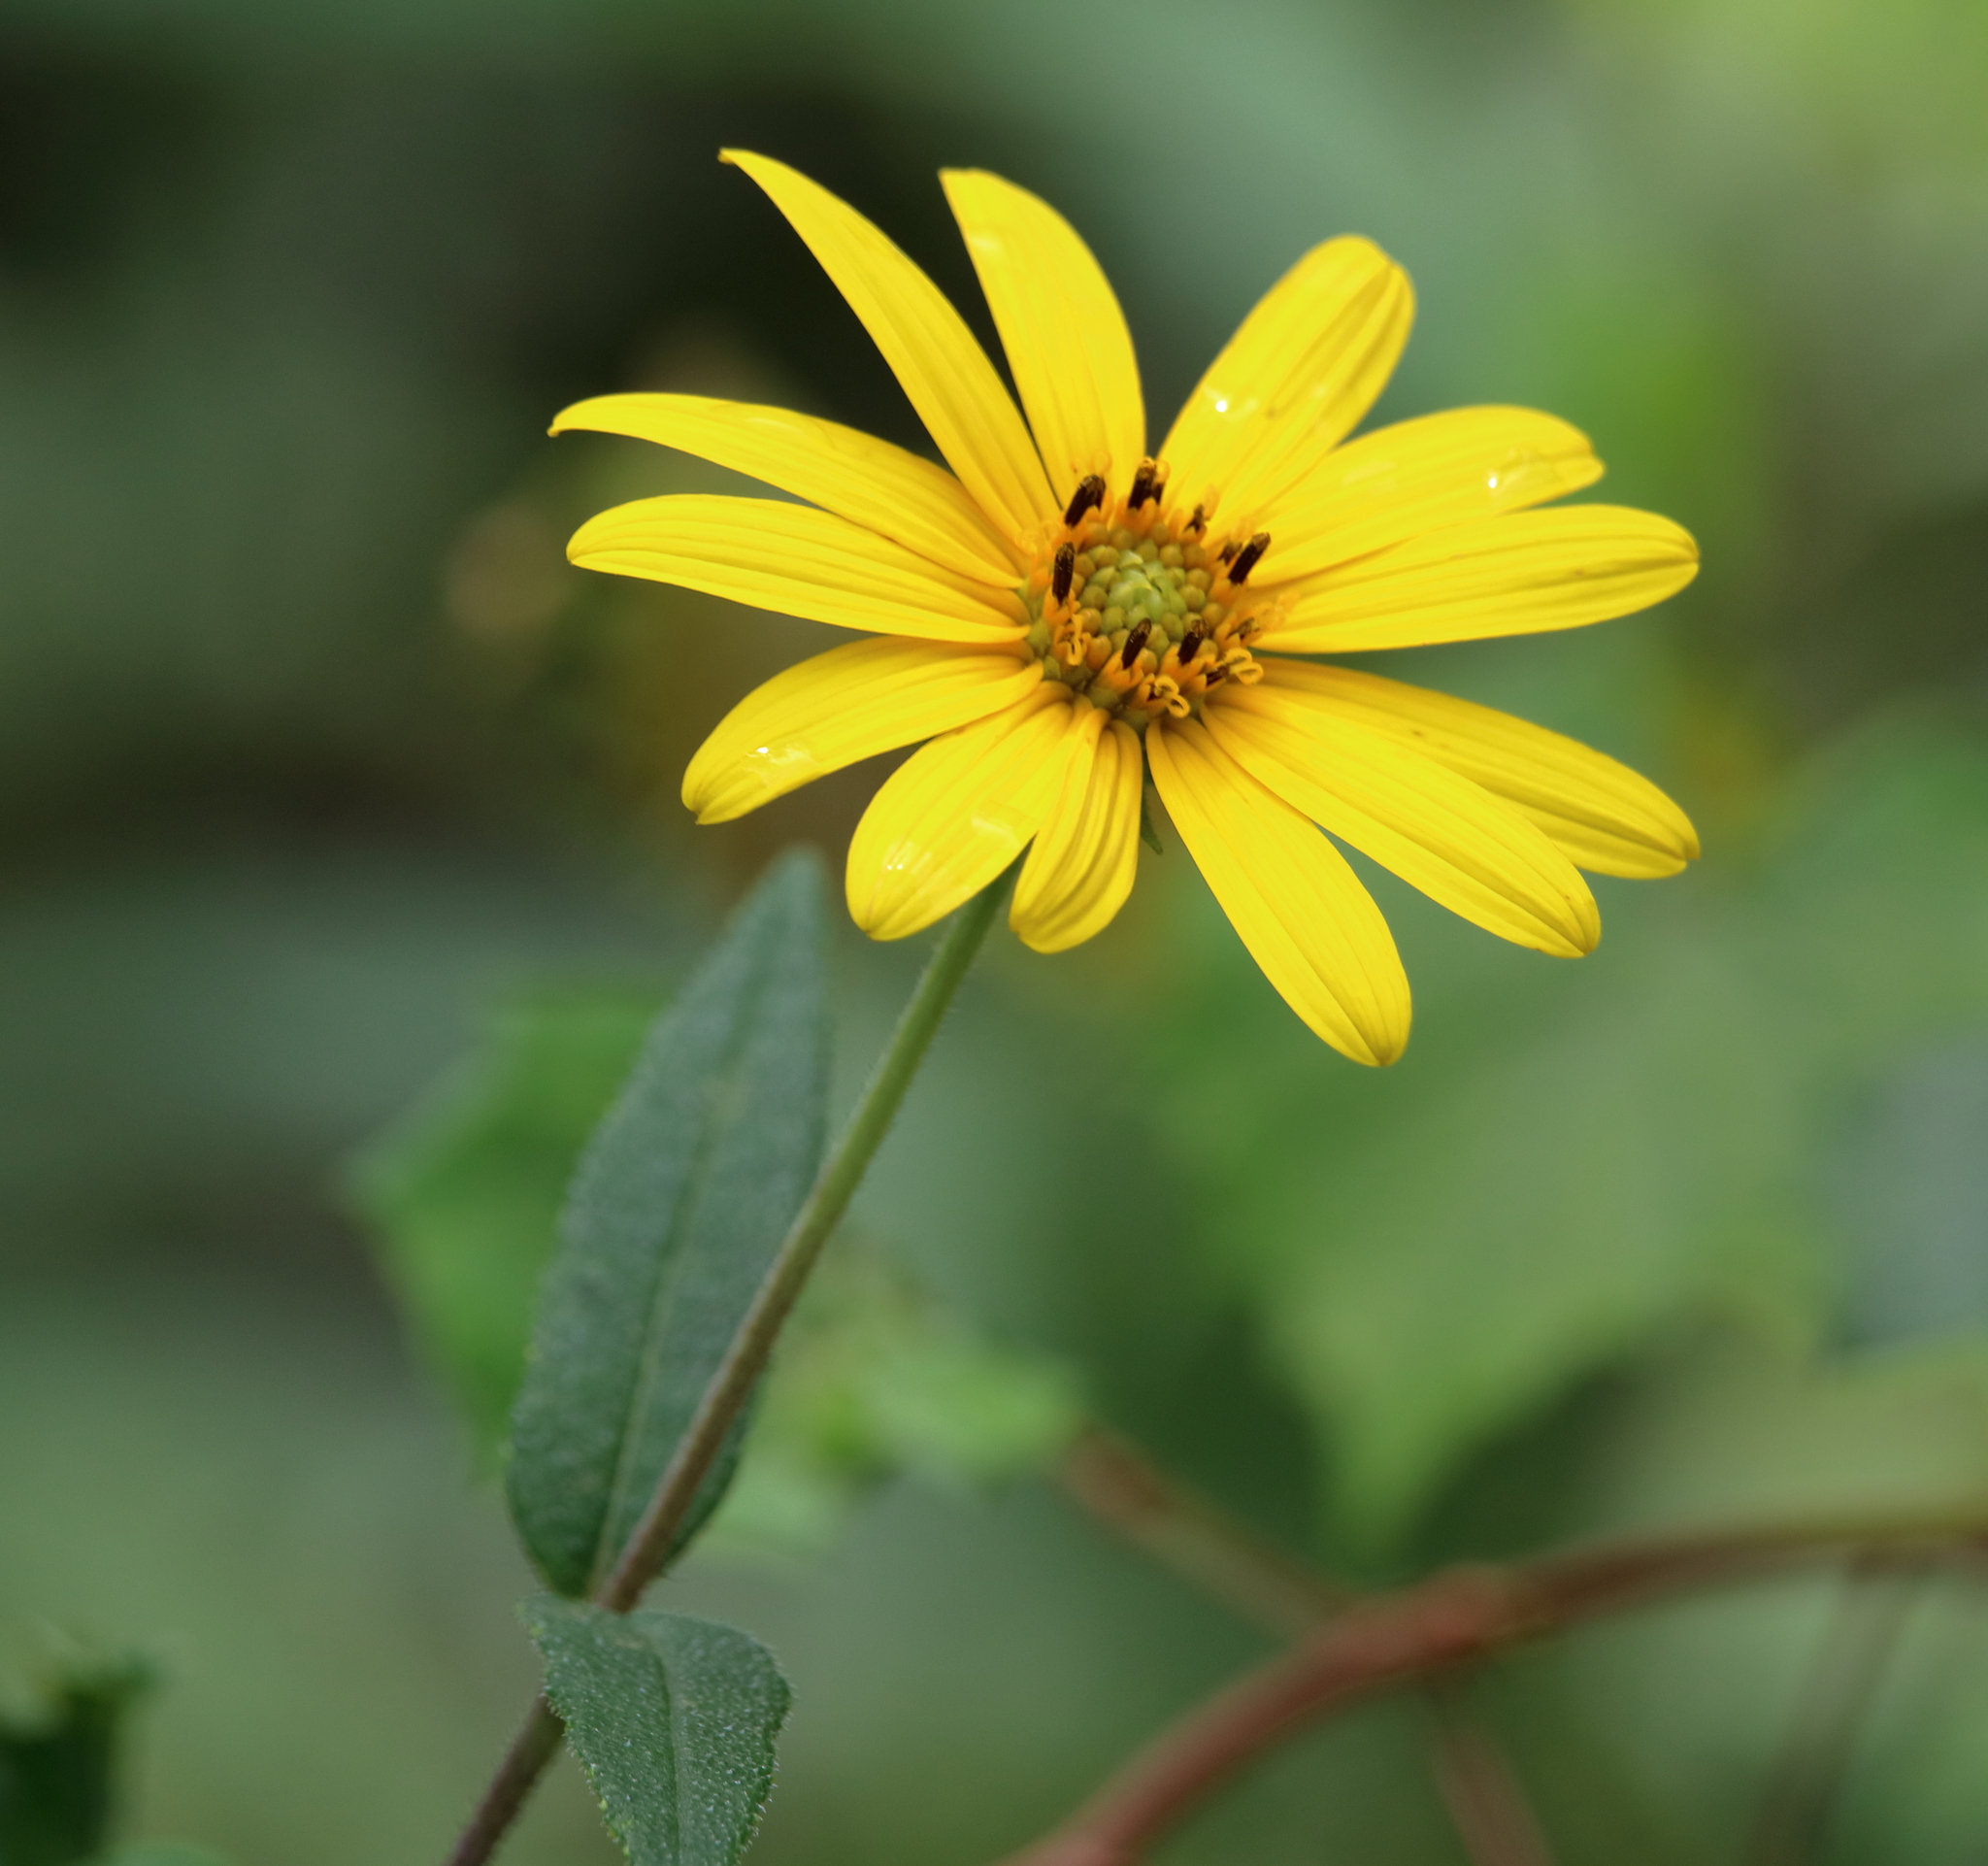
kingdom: Plantae
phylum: Tracheophyta
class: Magnoliopsida
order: Asterales
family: Asteraceae
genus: Helianthus
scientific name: Helianthus hirsutus
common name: Hairy sunflower
